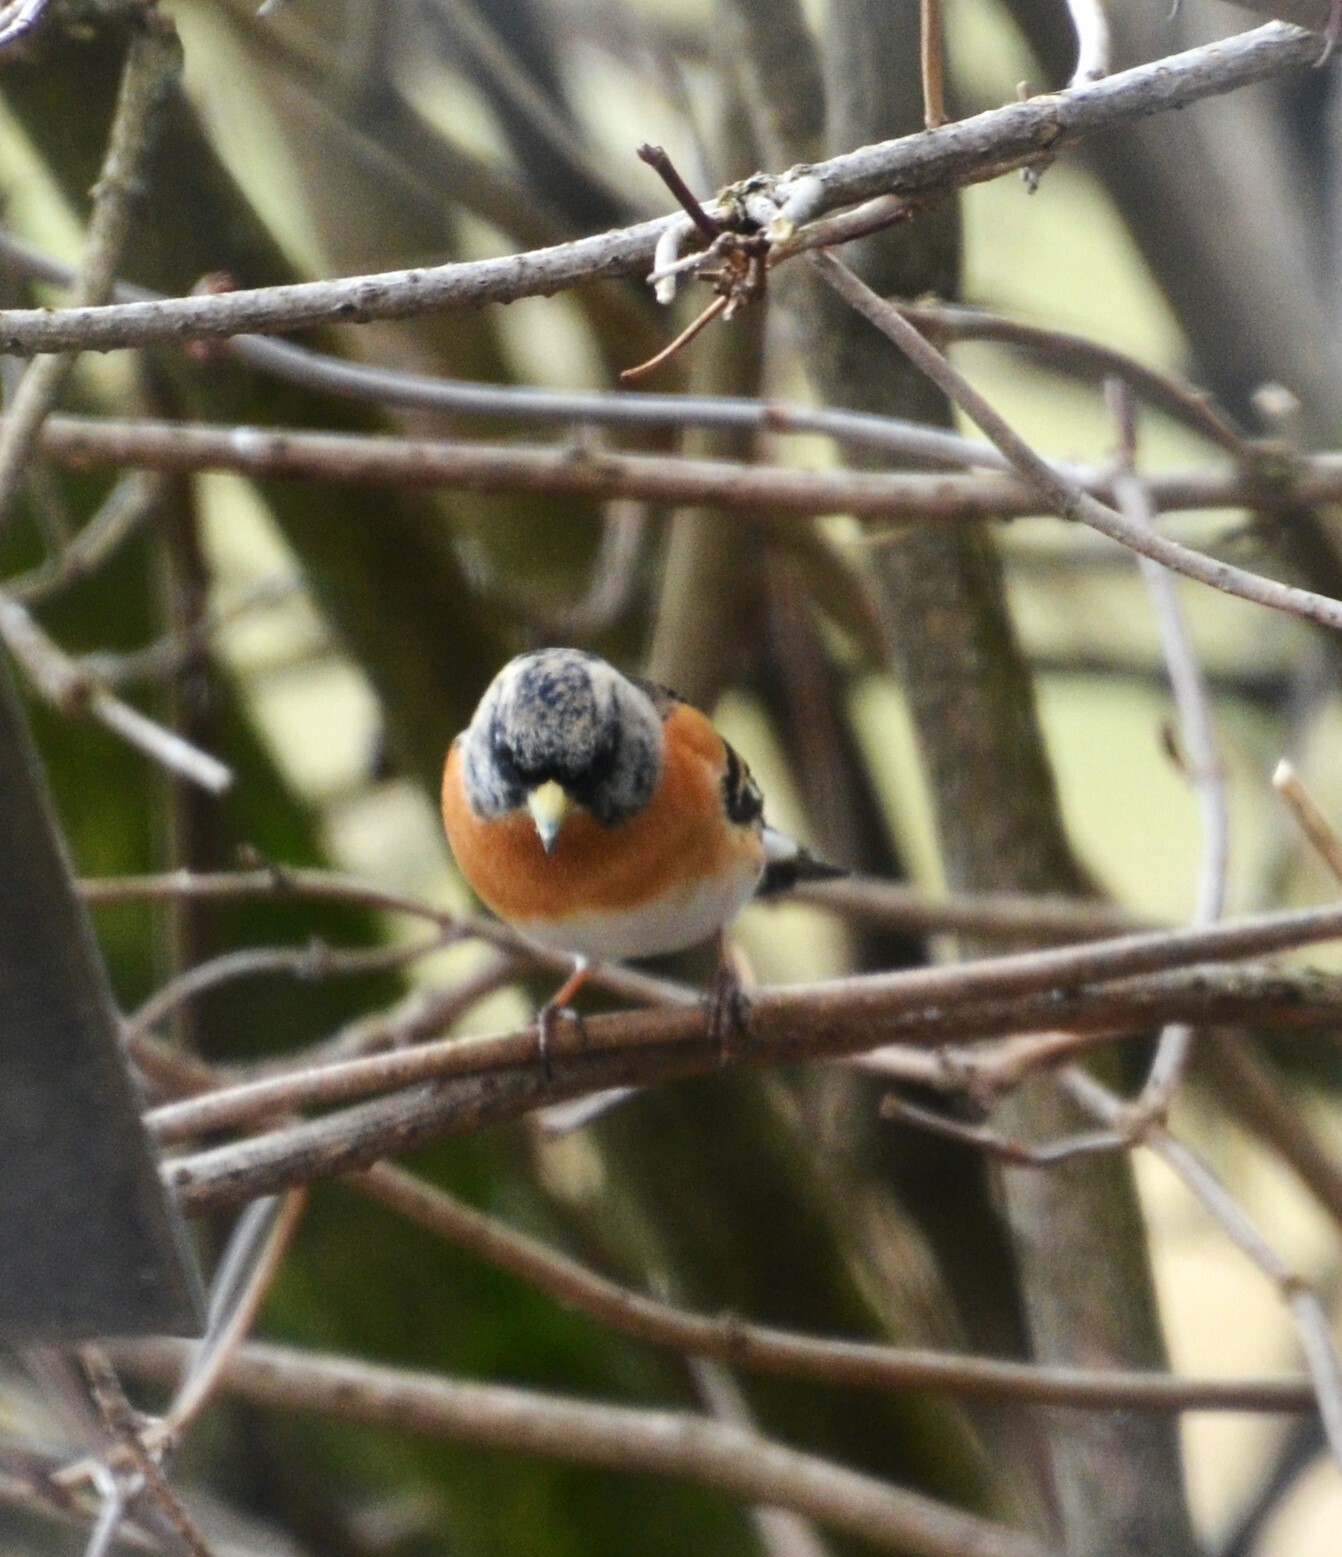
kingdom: Animalia
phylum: Chordata
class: Aves
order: Passeriformes
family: Fringillidae
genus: Fringilla
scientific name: Fringilla montifringilla
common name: Brambling
